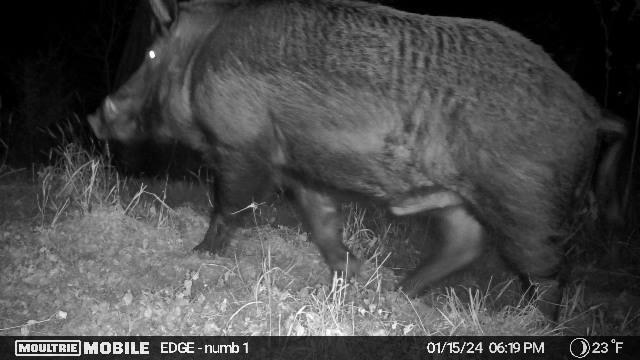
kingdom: Animalia
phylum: Chordata
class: Mammalia
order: Artiodactyla
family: Suidae
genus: Sus
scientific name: Sus scrofa
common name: Wild boar
